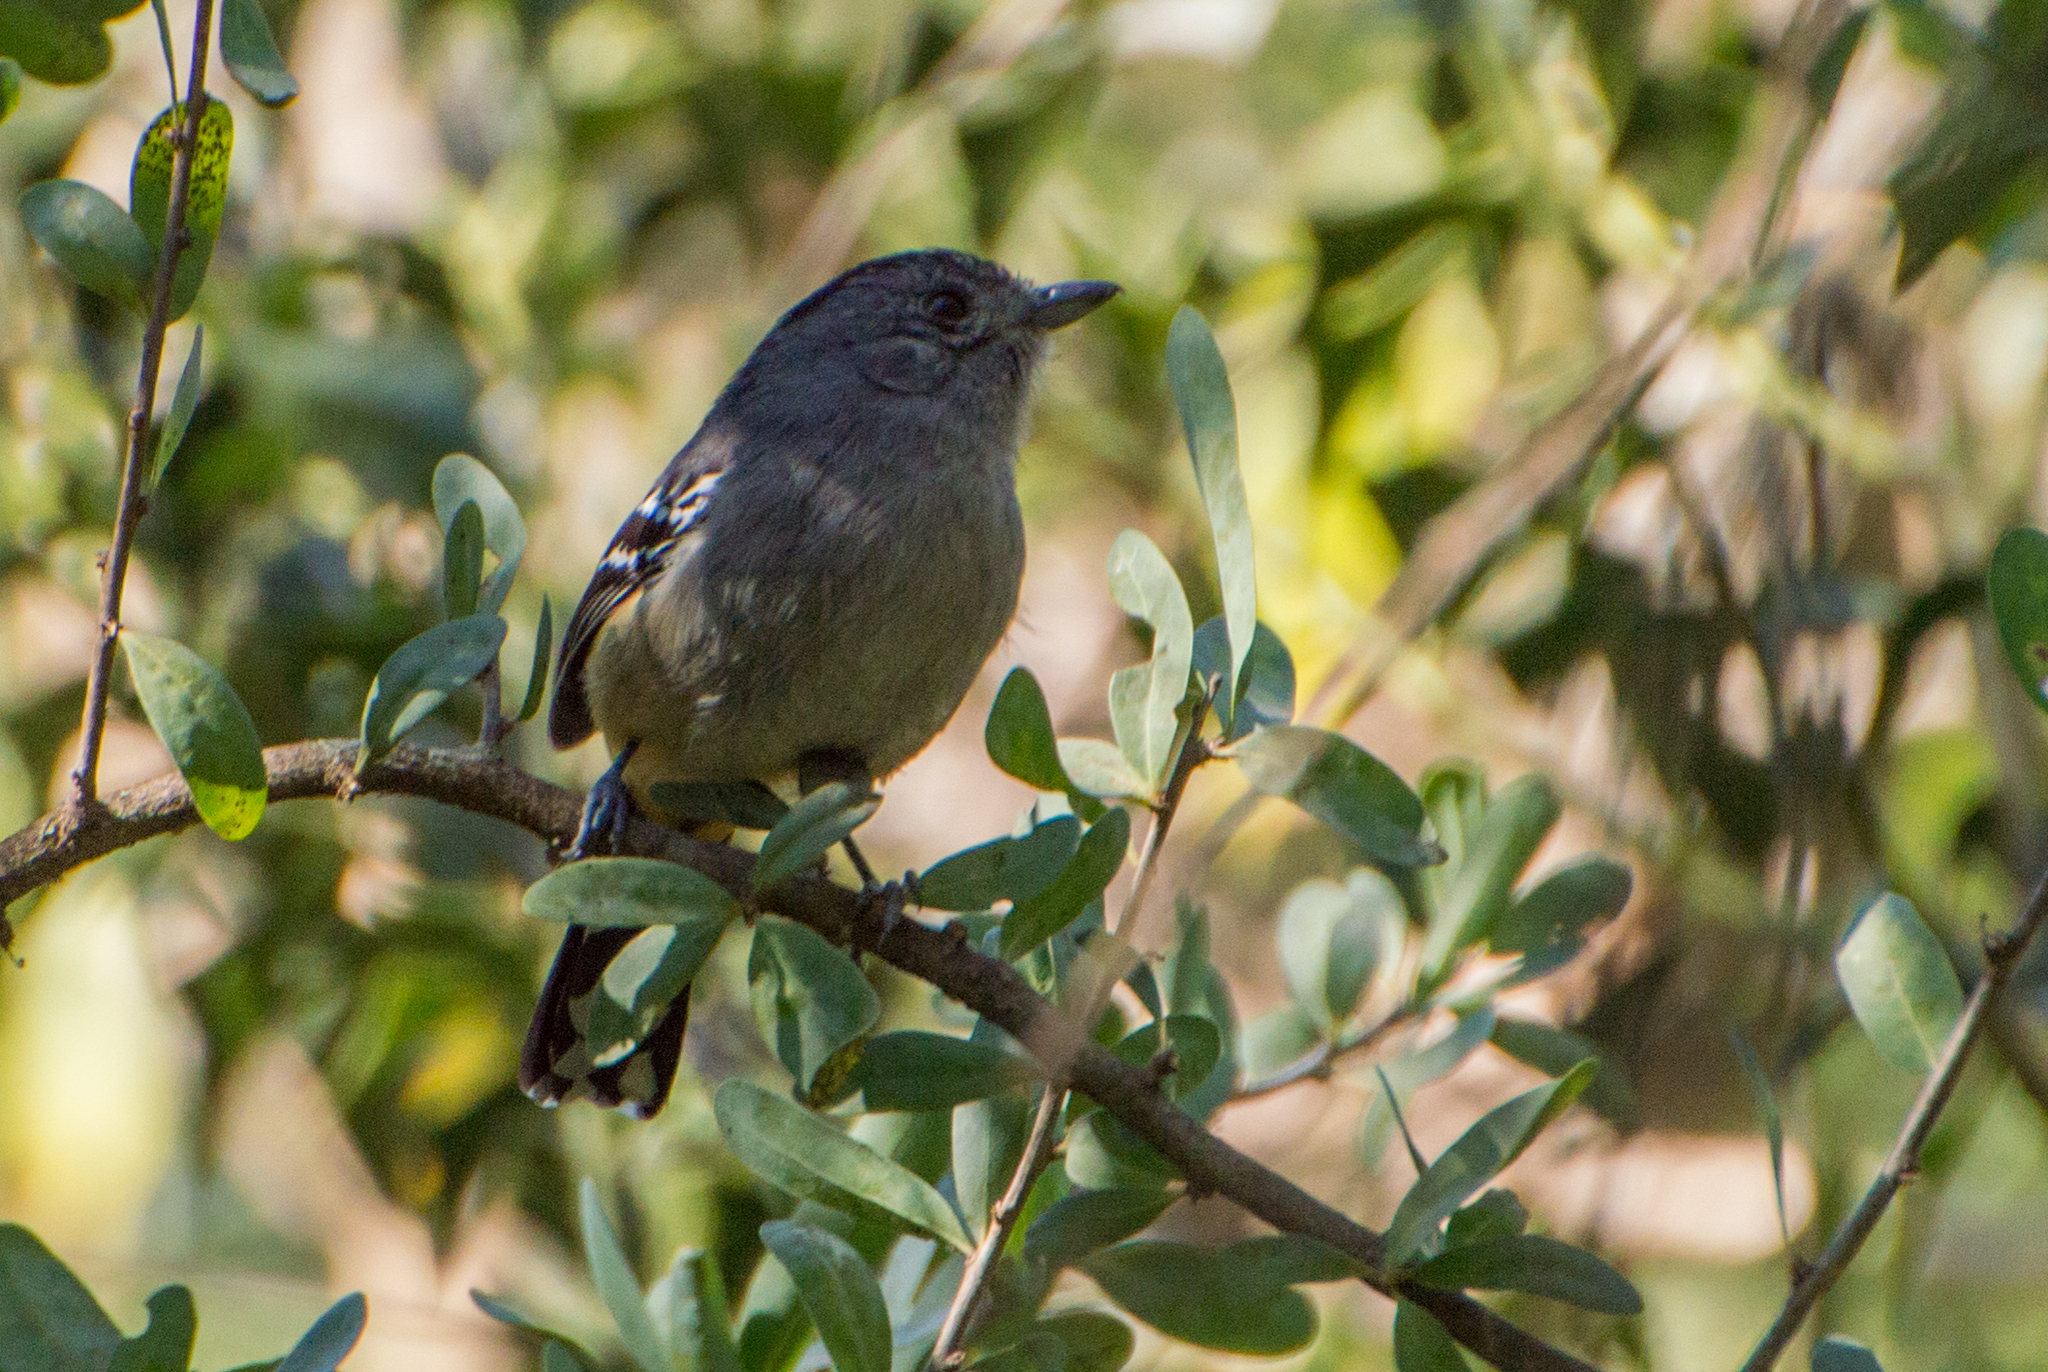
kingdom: Animalia
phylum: Chordata
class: Aves
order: Passeriformes
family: Thamnophilidae
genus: Thamnophilus
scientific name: Thamnophilus caerulescens
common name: Variable antshrike
